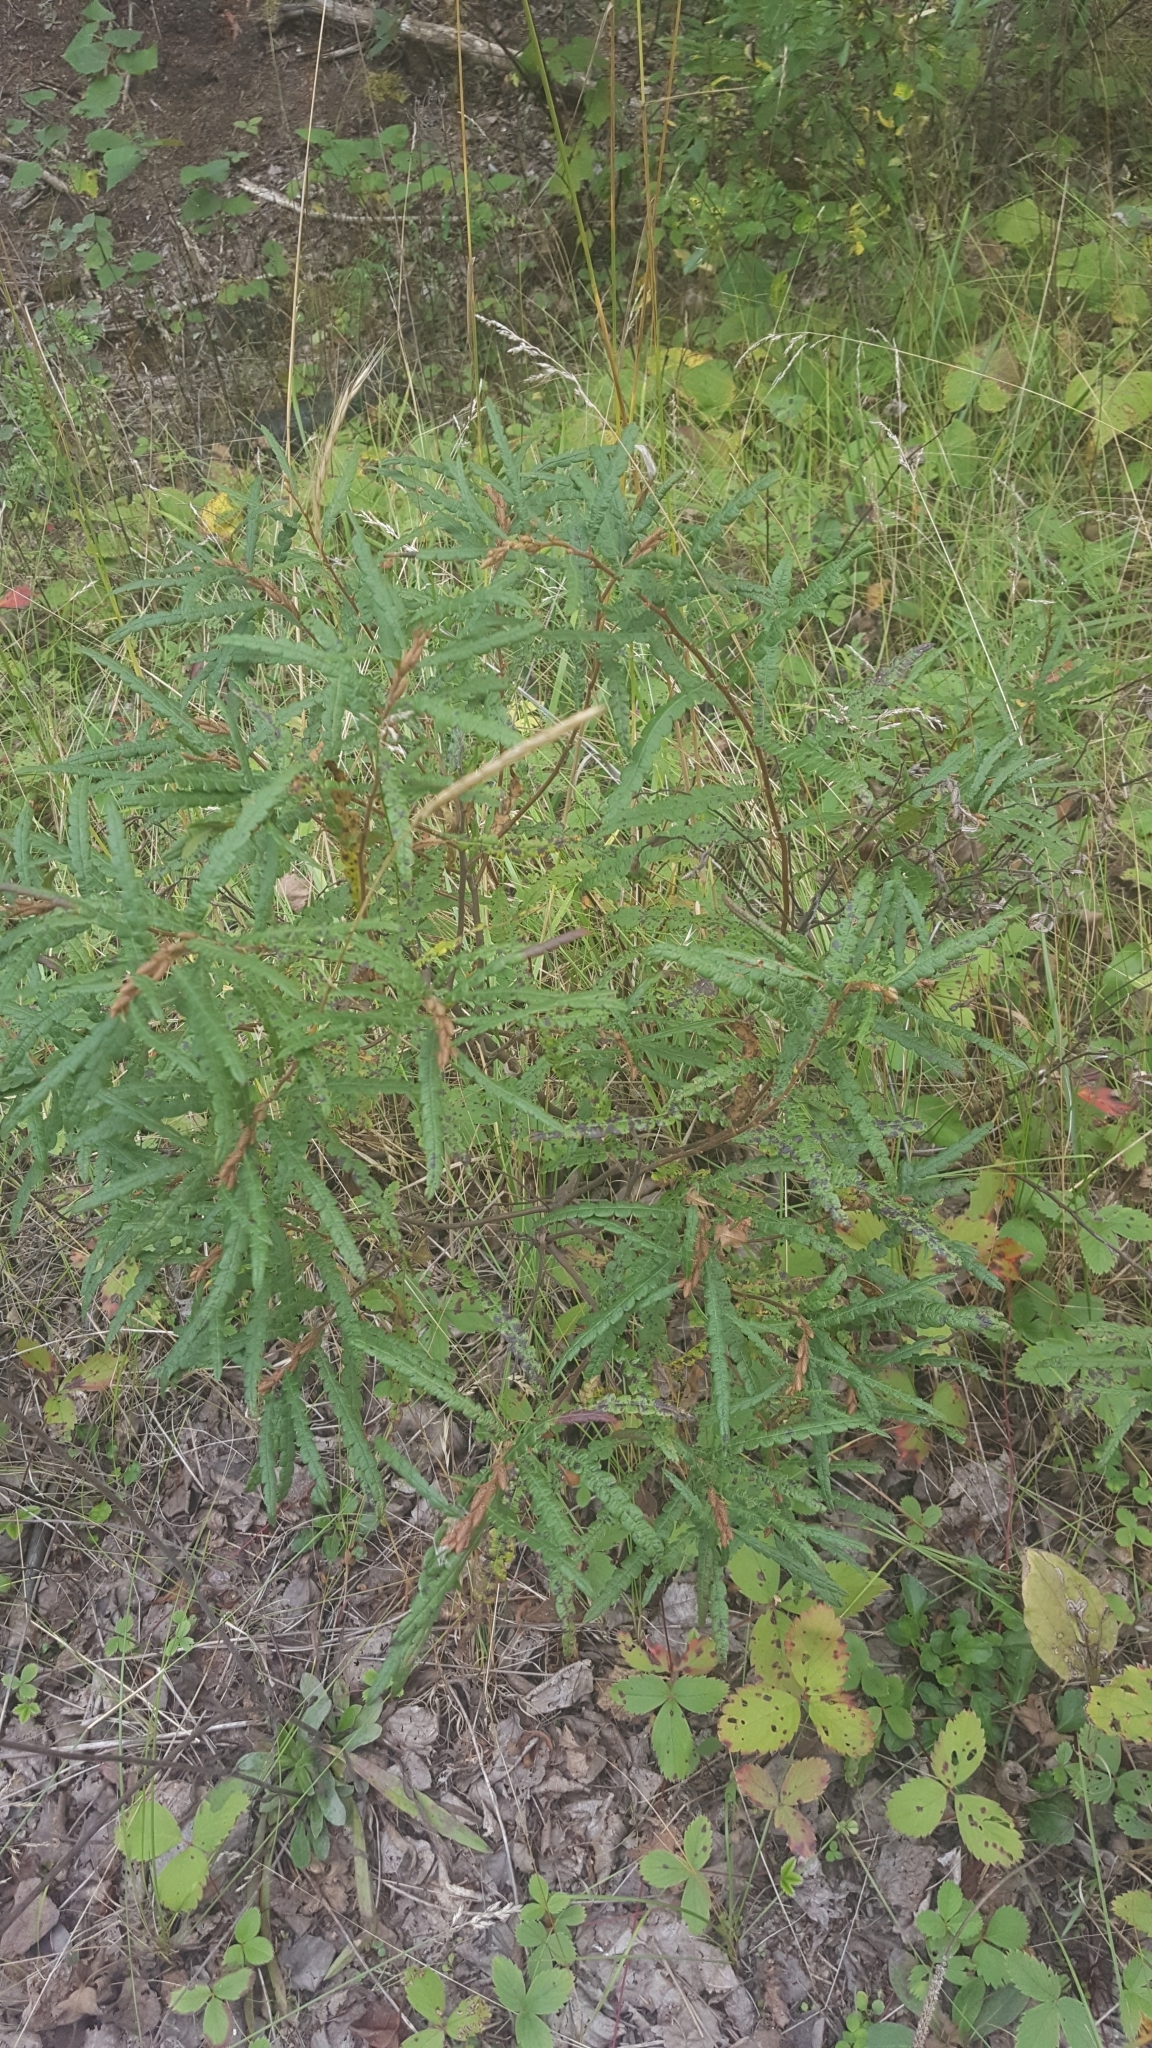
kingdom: Plantae
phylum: Tracheophyta
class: Magnoliopsida
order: Fagales
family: Myricaceae
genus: Comptonia
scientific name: Comptonia peregrina
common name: Sweet-fern
